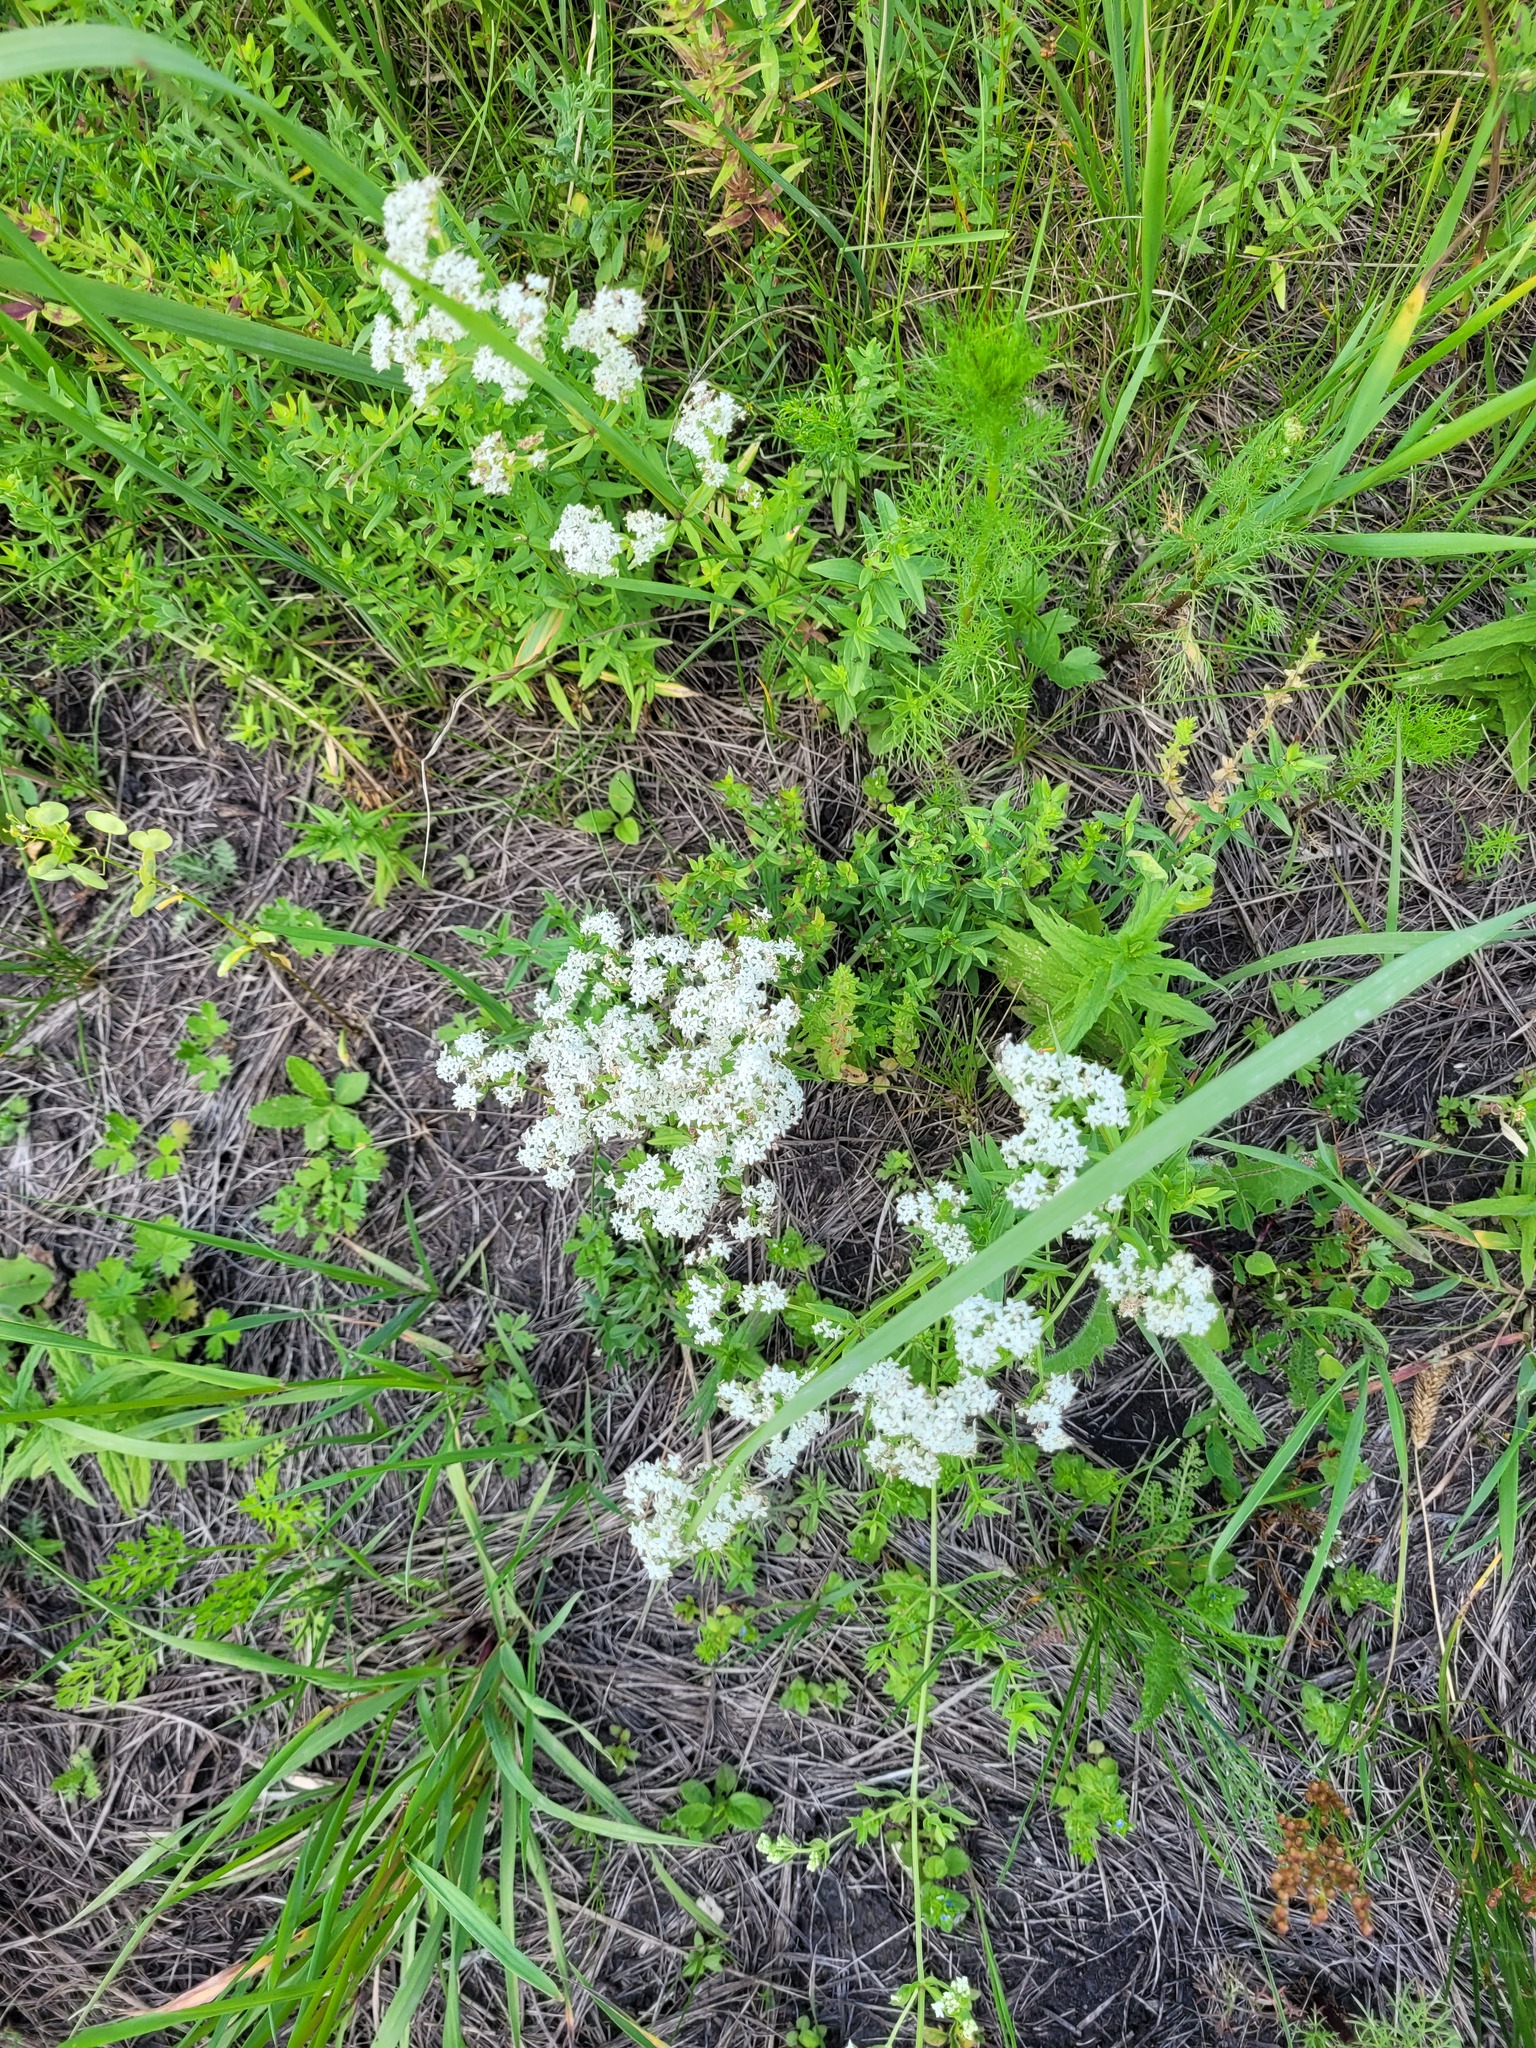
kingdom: Plantae
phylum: Tracheophyta
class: Magnoliopsida
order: Gentianales
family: Rubiaceae
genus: Galium
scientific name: Galium boreale
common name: Northern bedstraw
